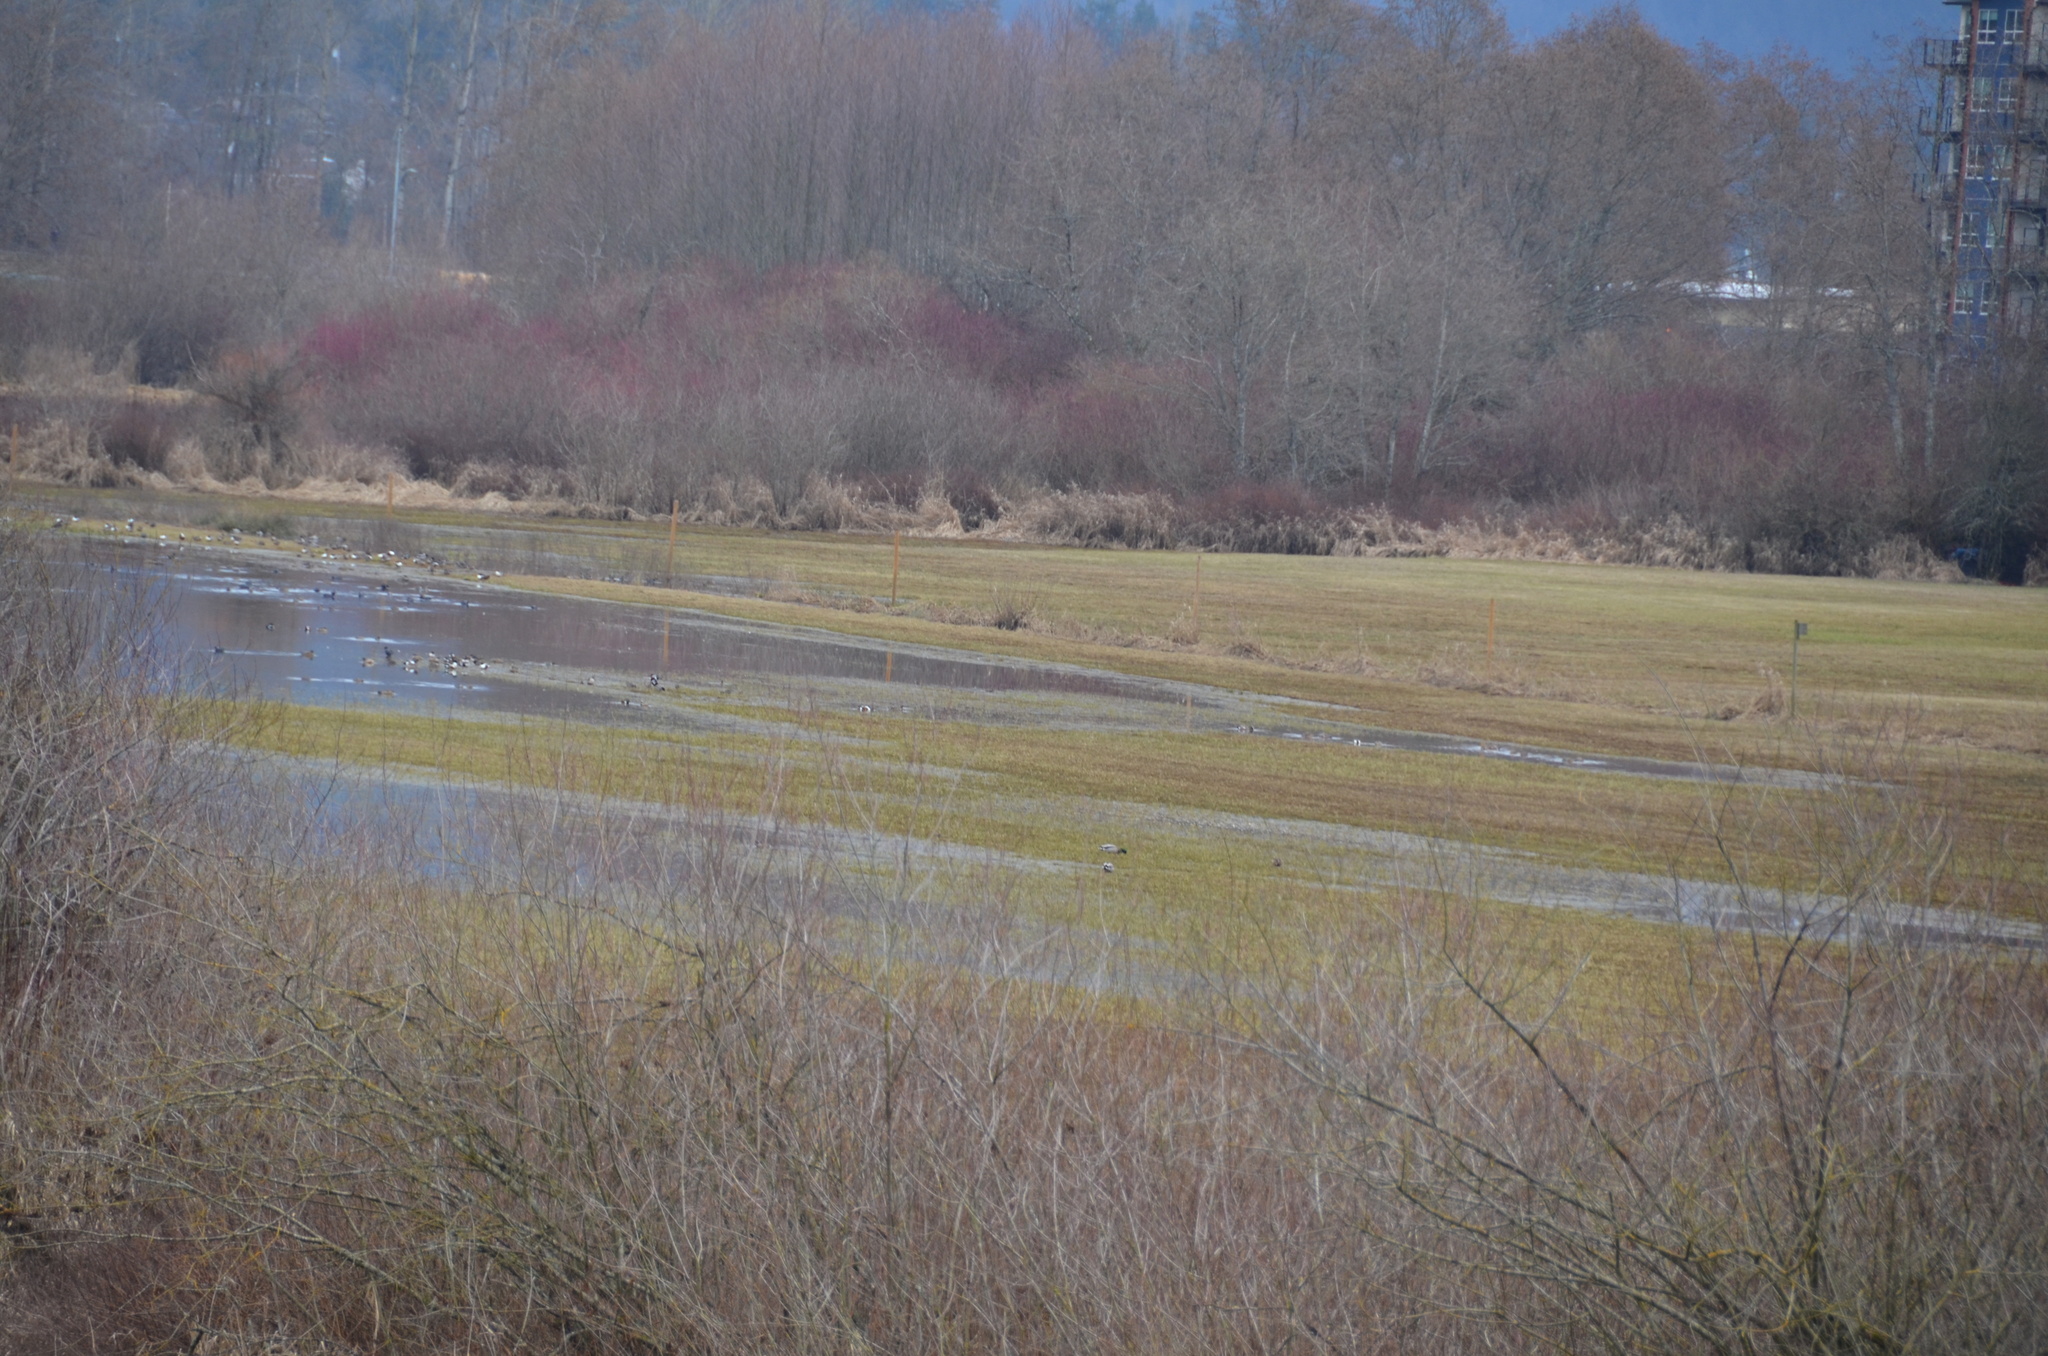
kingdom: Animalia
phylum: Chordata
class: Aves
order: Anseriformes
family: Anatidae
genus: Anas
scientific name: Anas platyrhynchos
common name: Mallard
